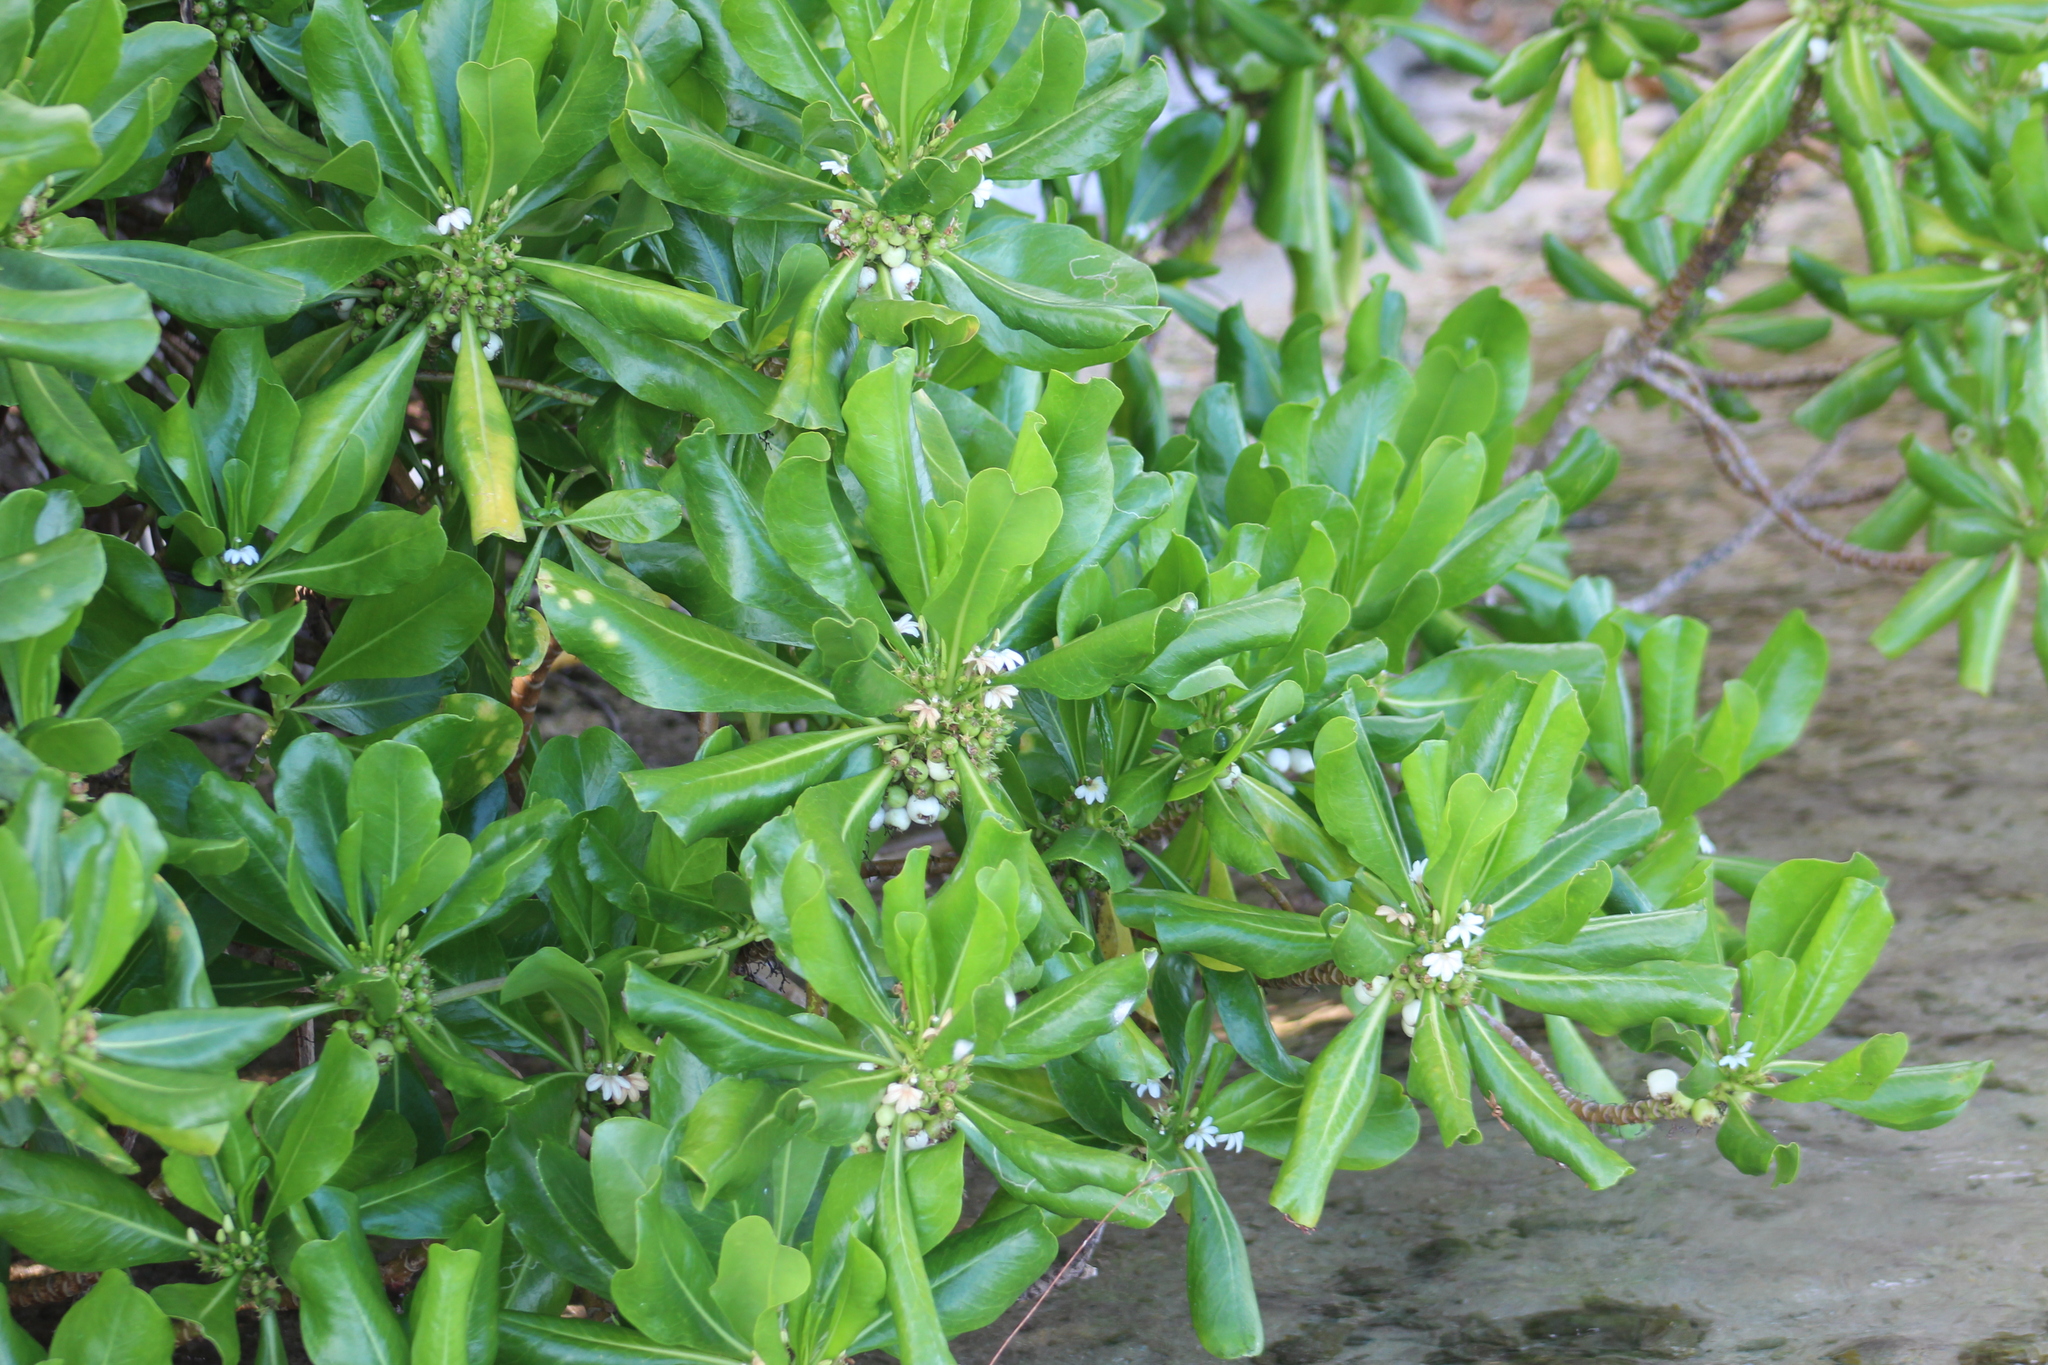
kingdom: Plantae
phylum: Tracheophyta
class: Magnoliopsida
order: Asterales
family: Goodeniaceae
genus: Scaevola
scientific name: Scaevola taccada
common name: Sea lettucetree
